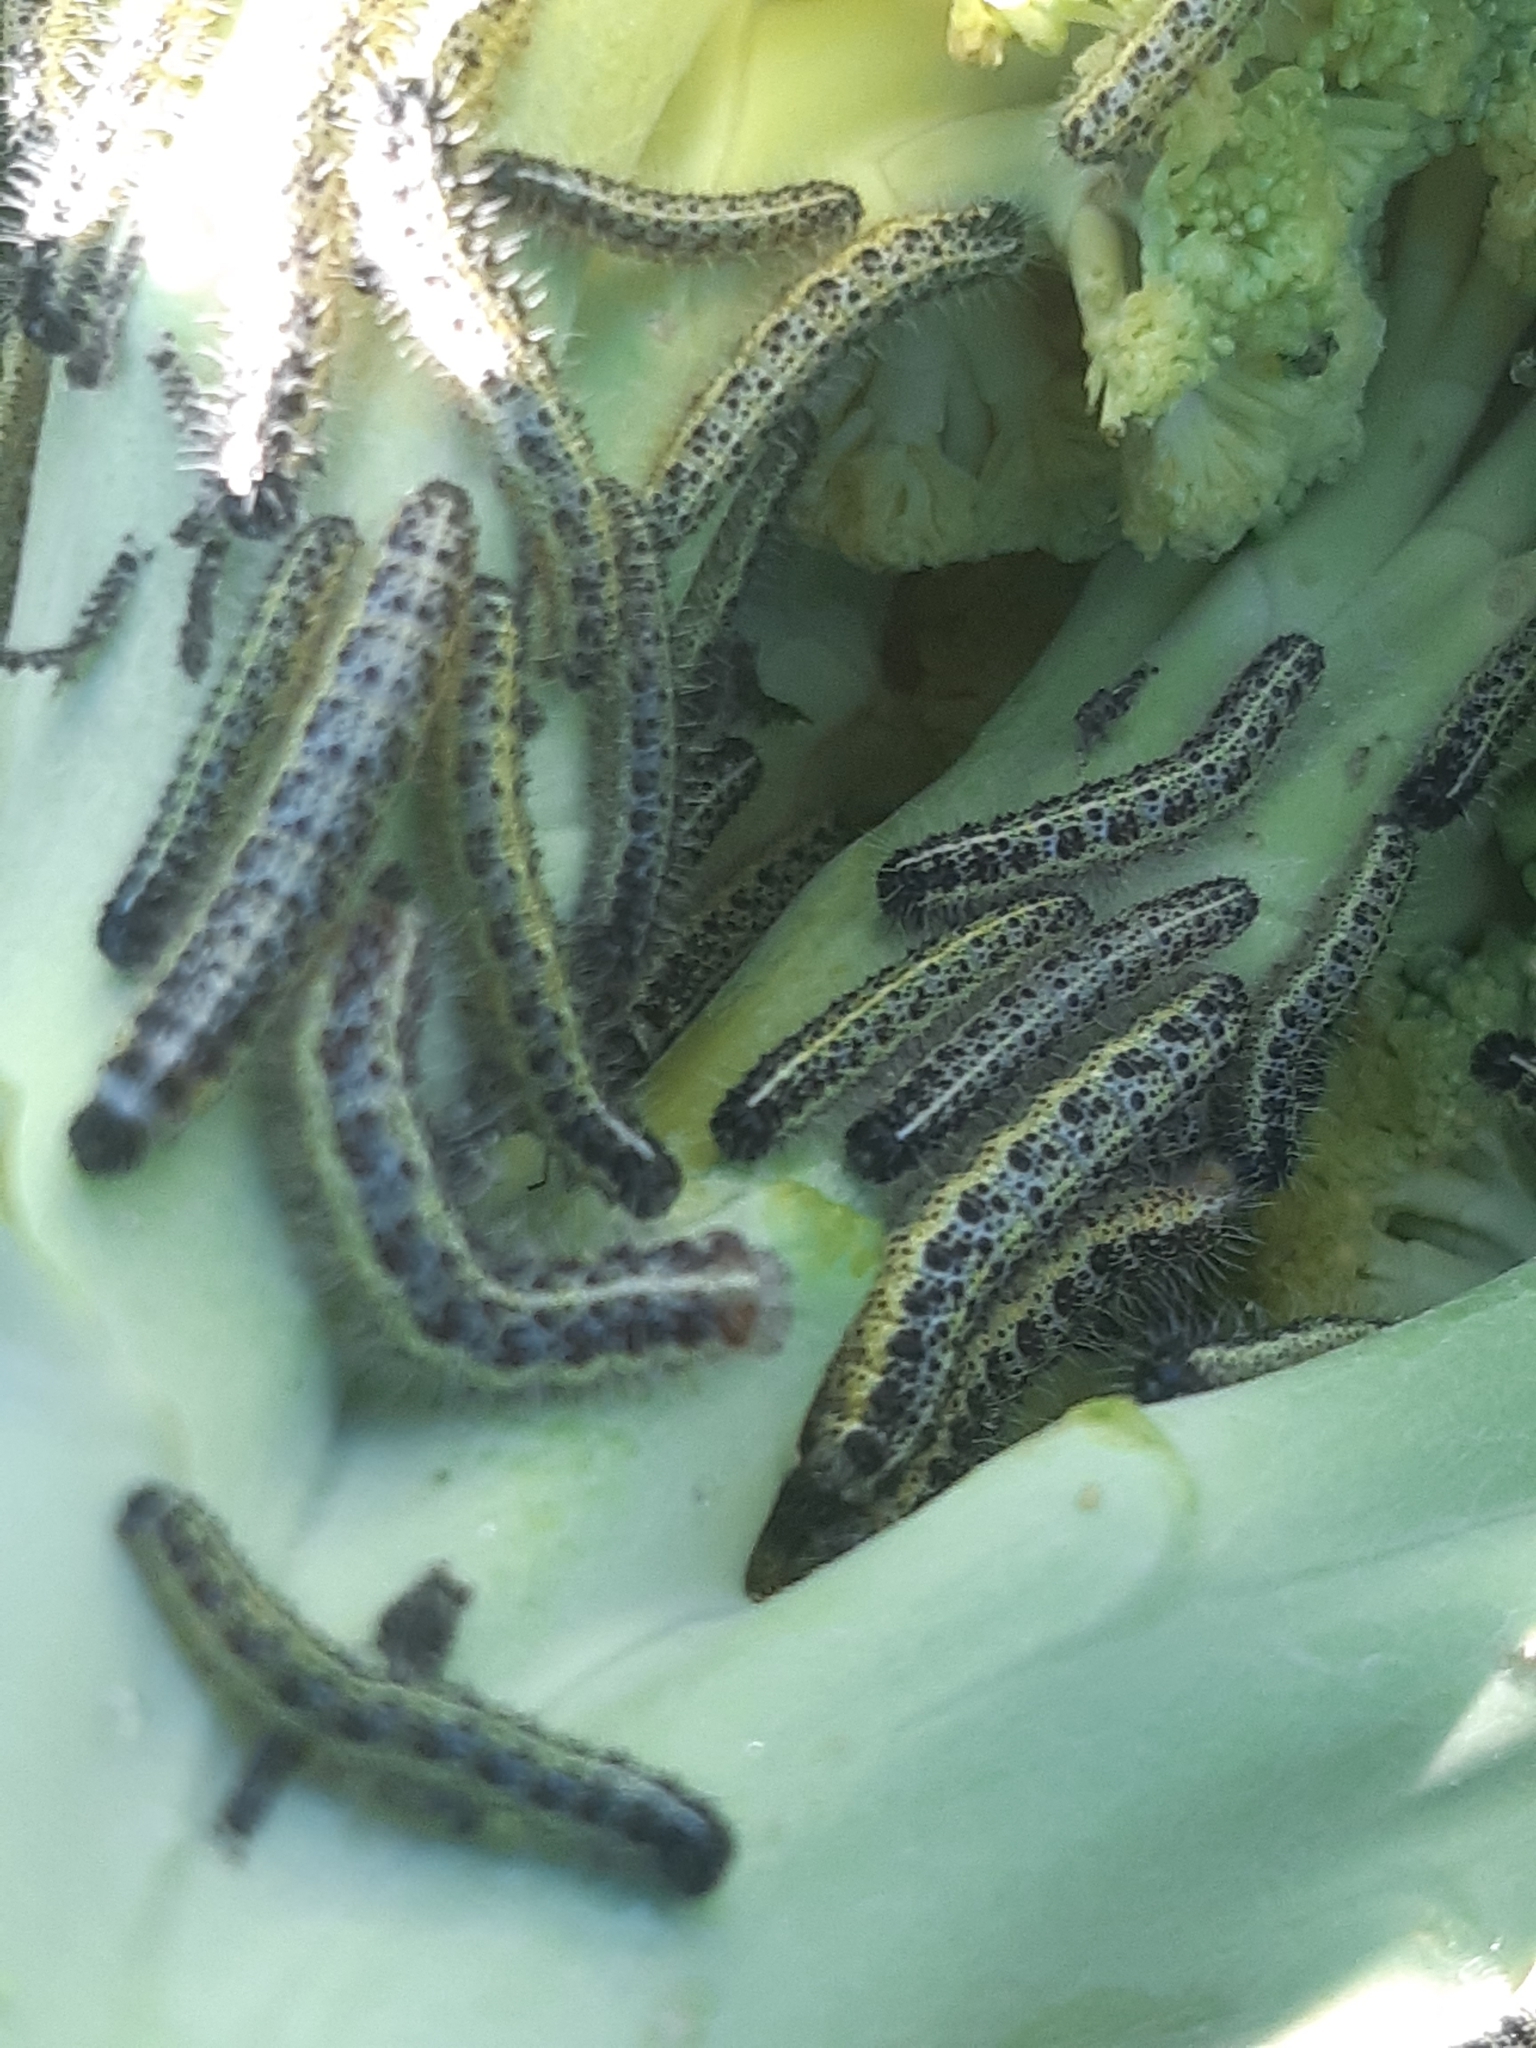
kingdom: Animalia
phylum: Arthropoda
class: Insecta
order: Lepidoptera
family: Pieridae
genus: Pieris
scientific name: Pieris brassicae
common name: Large white
